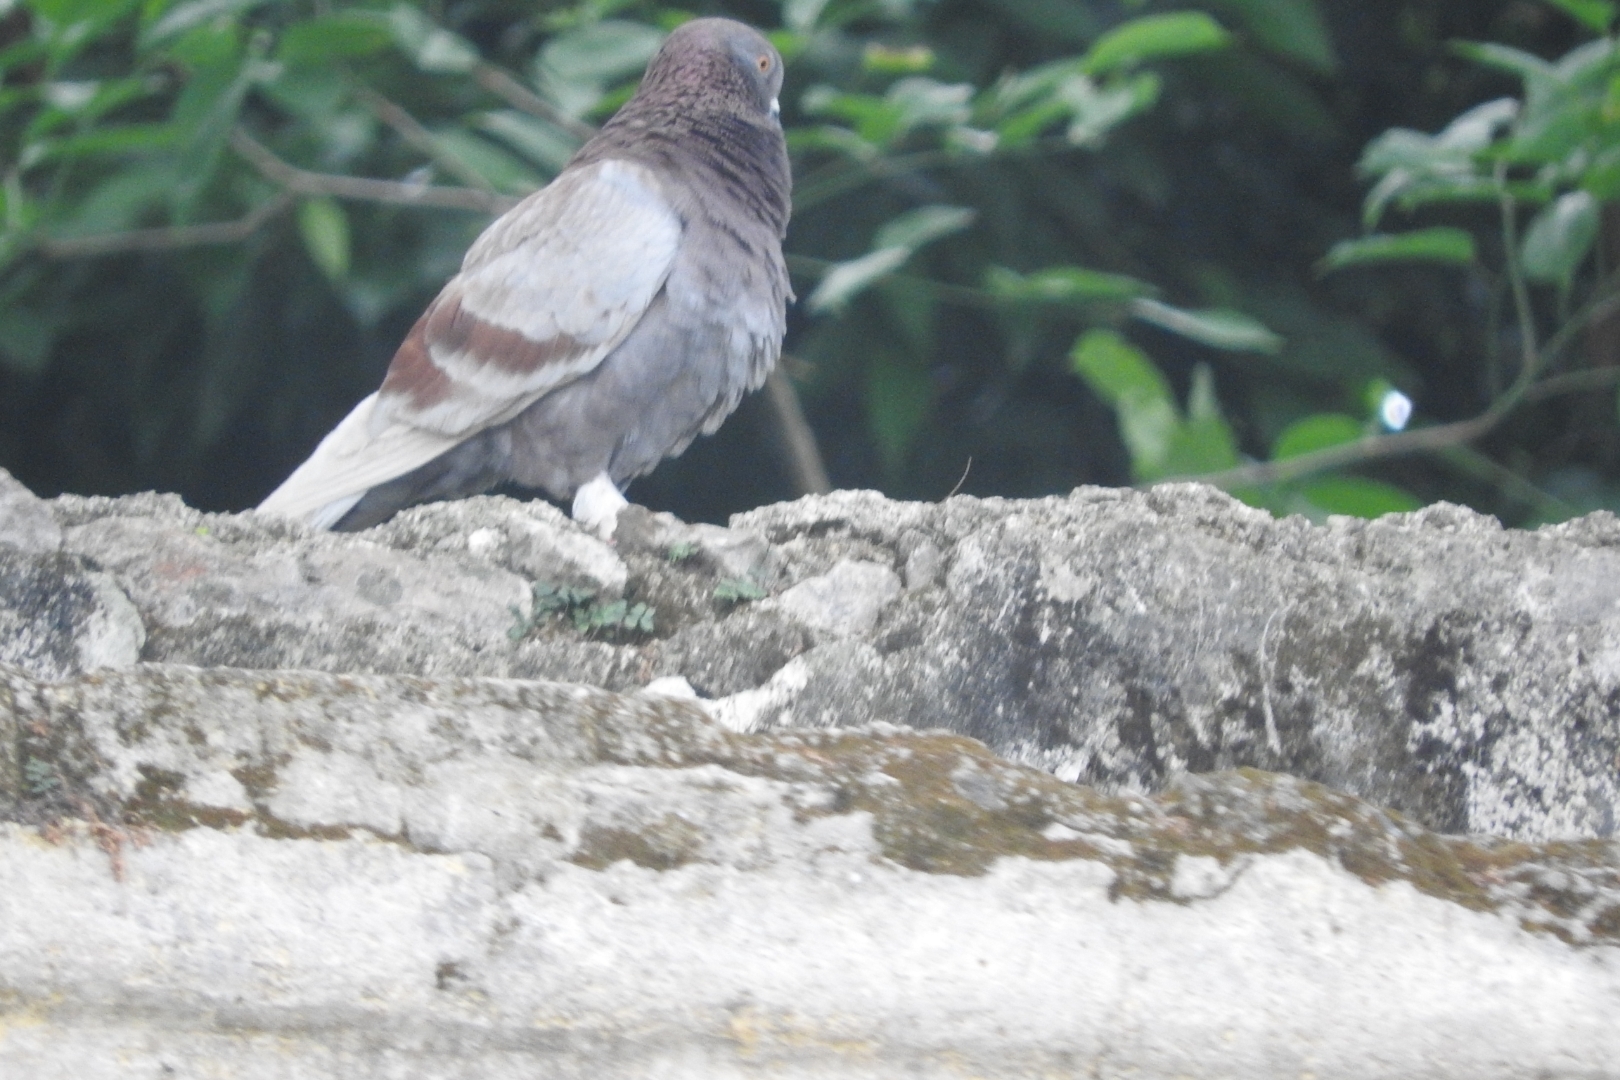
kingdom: Animalia
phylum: Chordata
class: Aves
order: Columbiformes
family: Columbidae
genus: Columba
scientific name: Columba livia
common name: Rock pigeon
